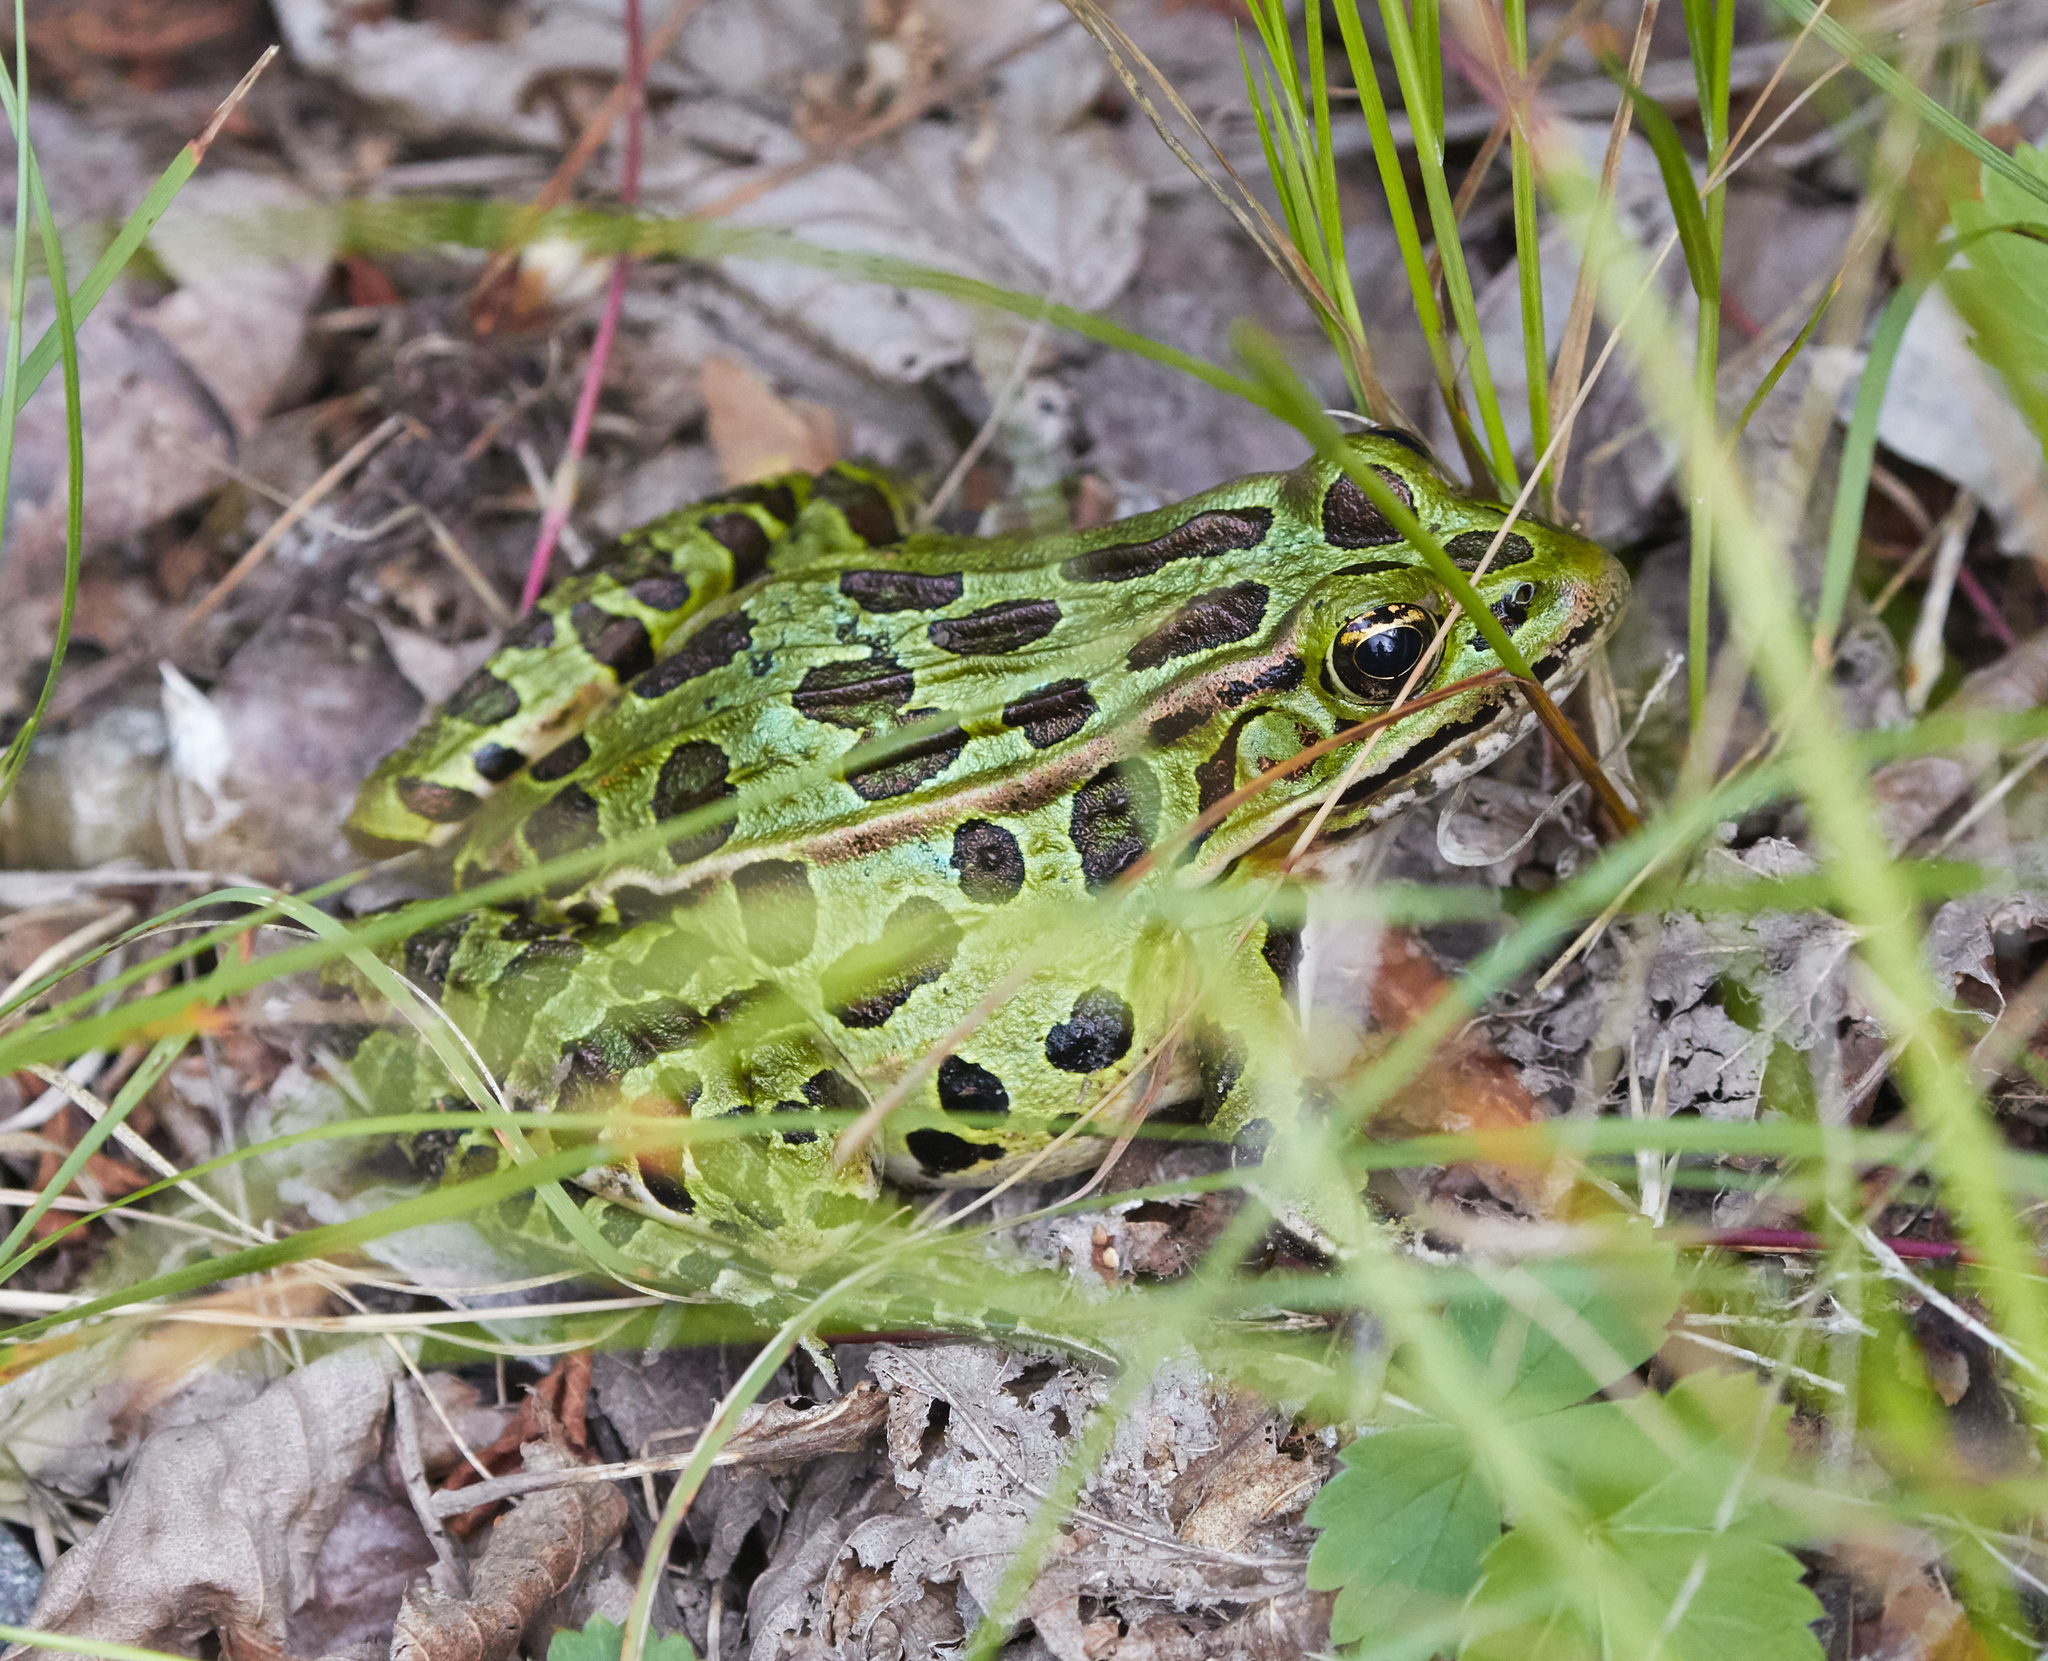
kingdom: Animalia
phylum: Chordata
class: Amphibia
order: Anura
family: Ranidae
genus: Lithobates
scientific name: Lithobates pipiens
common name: Northern leopard frog
